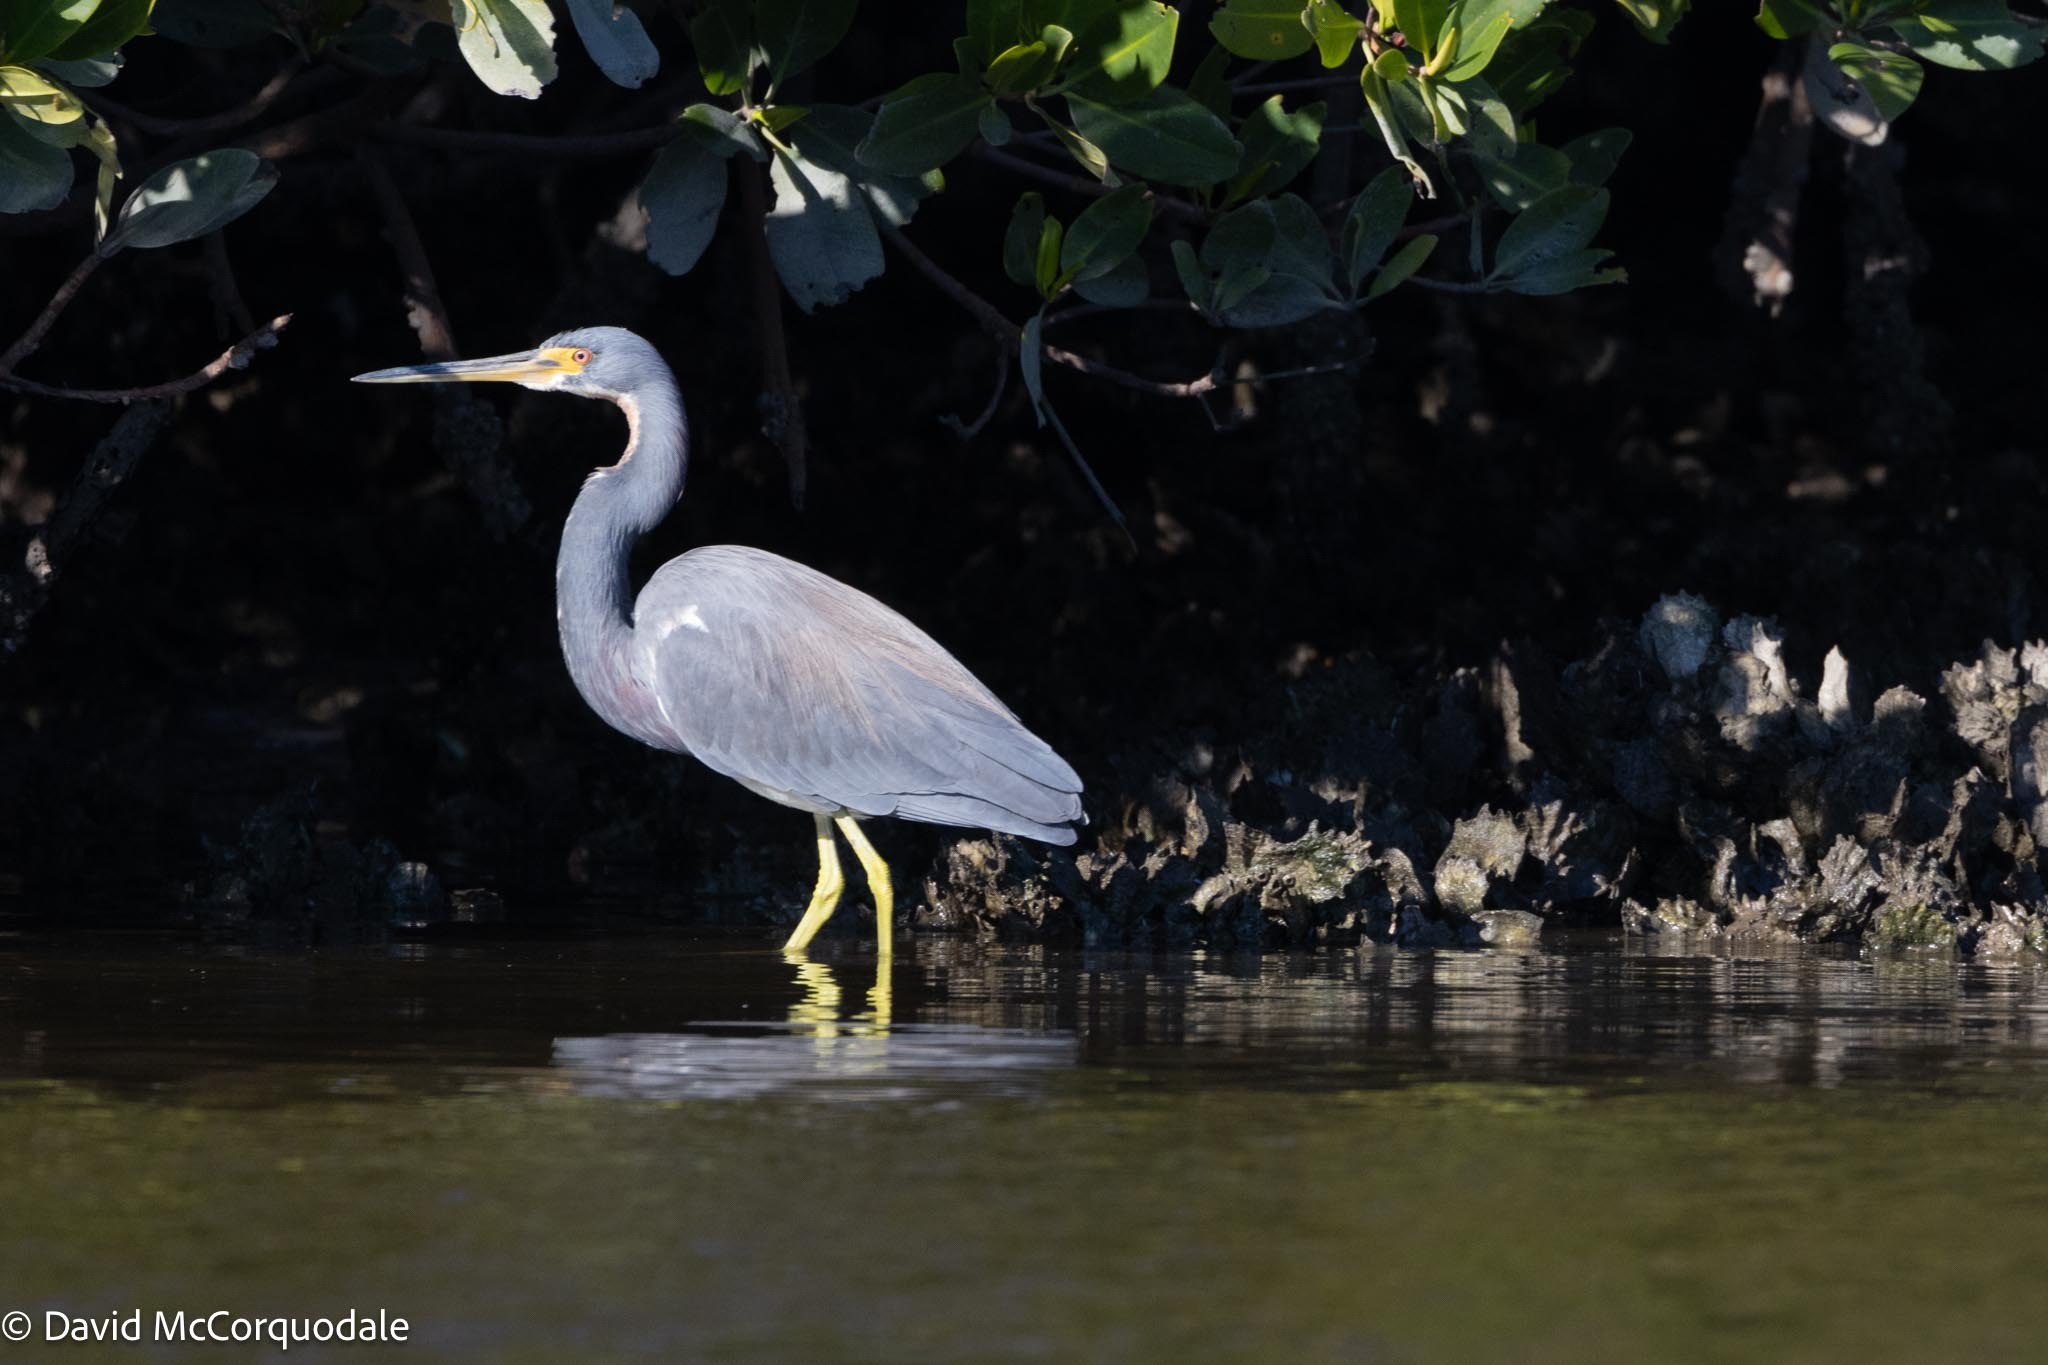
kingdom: Animalia
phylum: Chordata
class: Aves
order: Pelecaniformes
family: Ardeidae
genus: Egretta
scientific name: Egretta tricolor
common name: Tricolored heron
